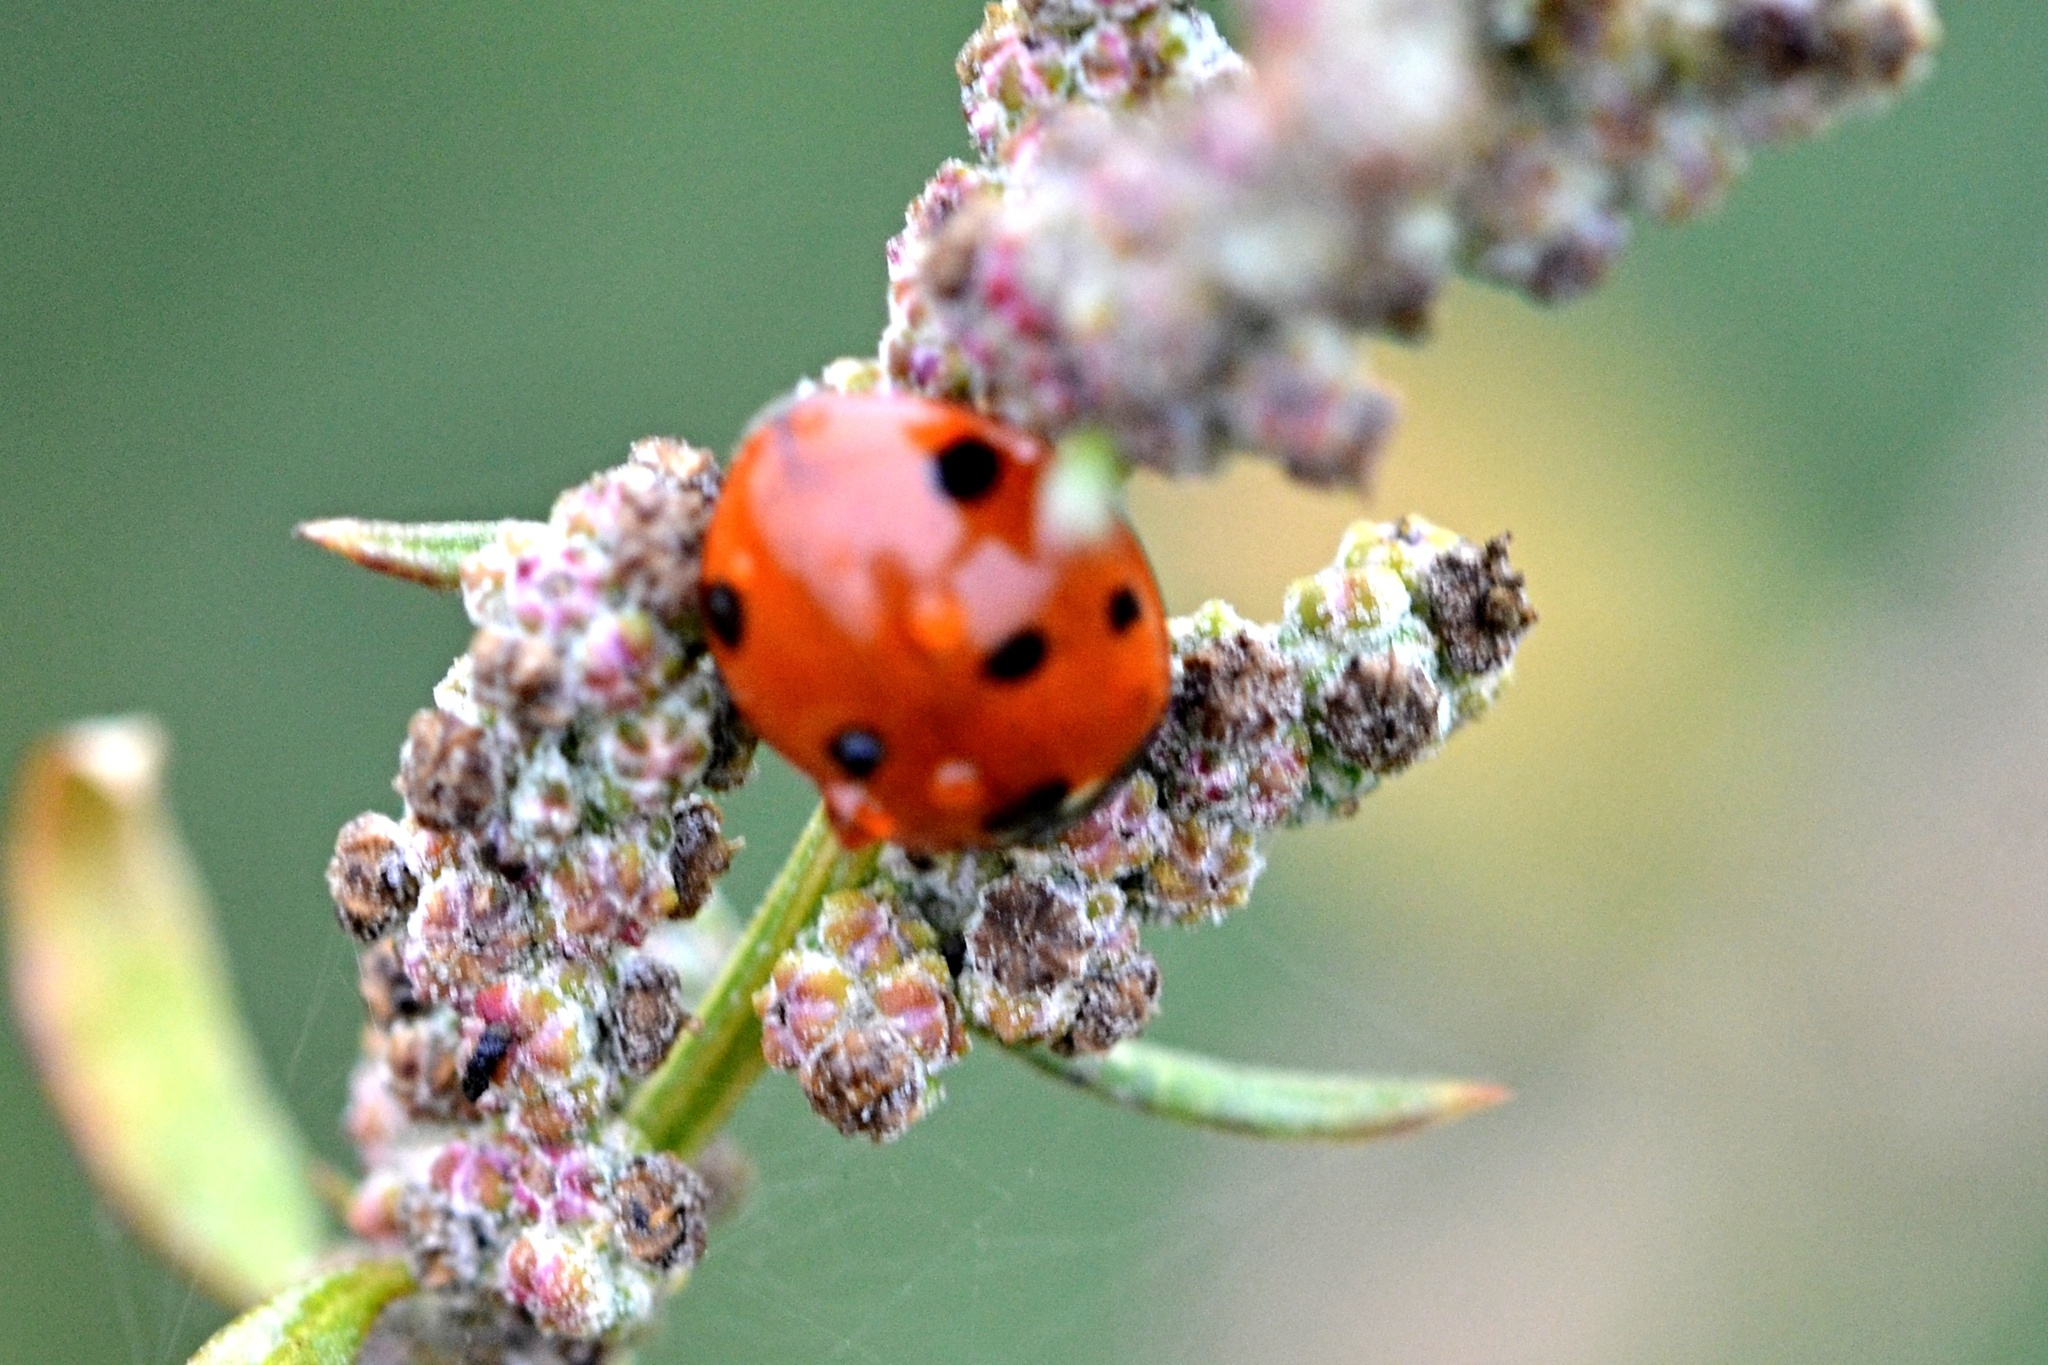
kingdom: Animalia
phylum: Arthropoda
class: Insecta
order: Coleoptera
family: Coccinellidae
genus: Coccinella
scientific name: Coccinella septempunctata
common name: Sevenspotted lady beetle
